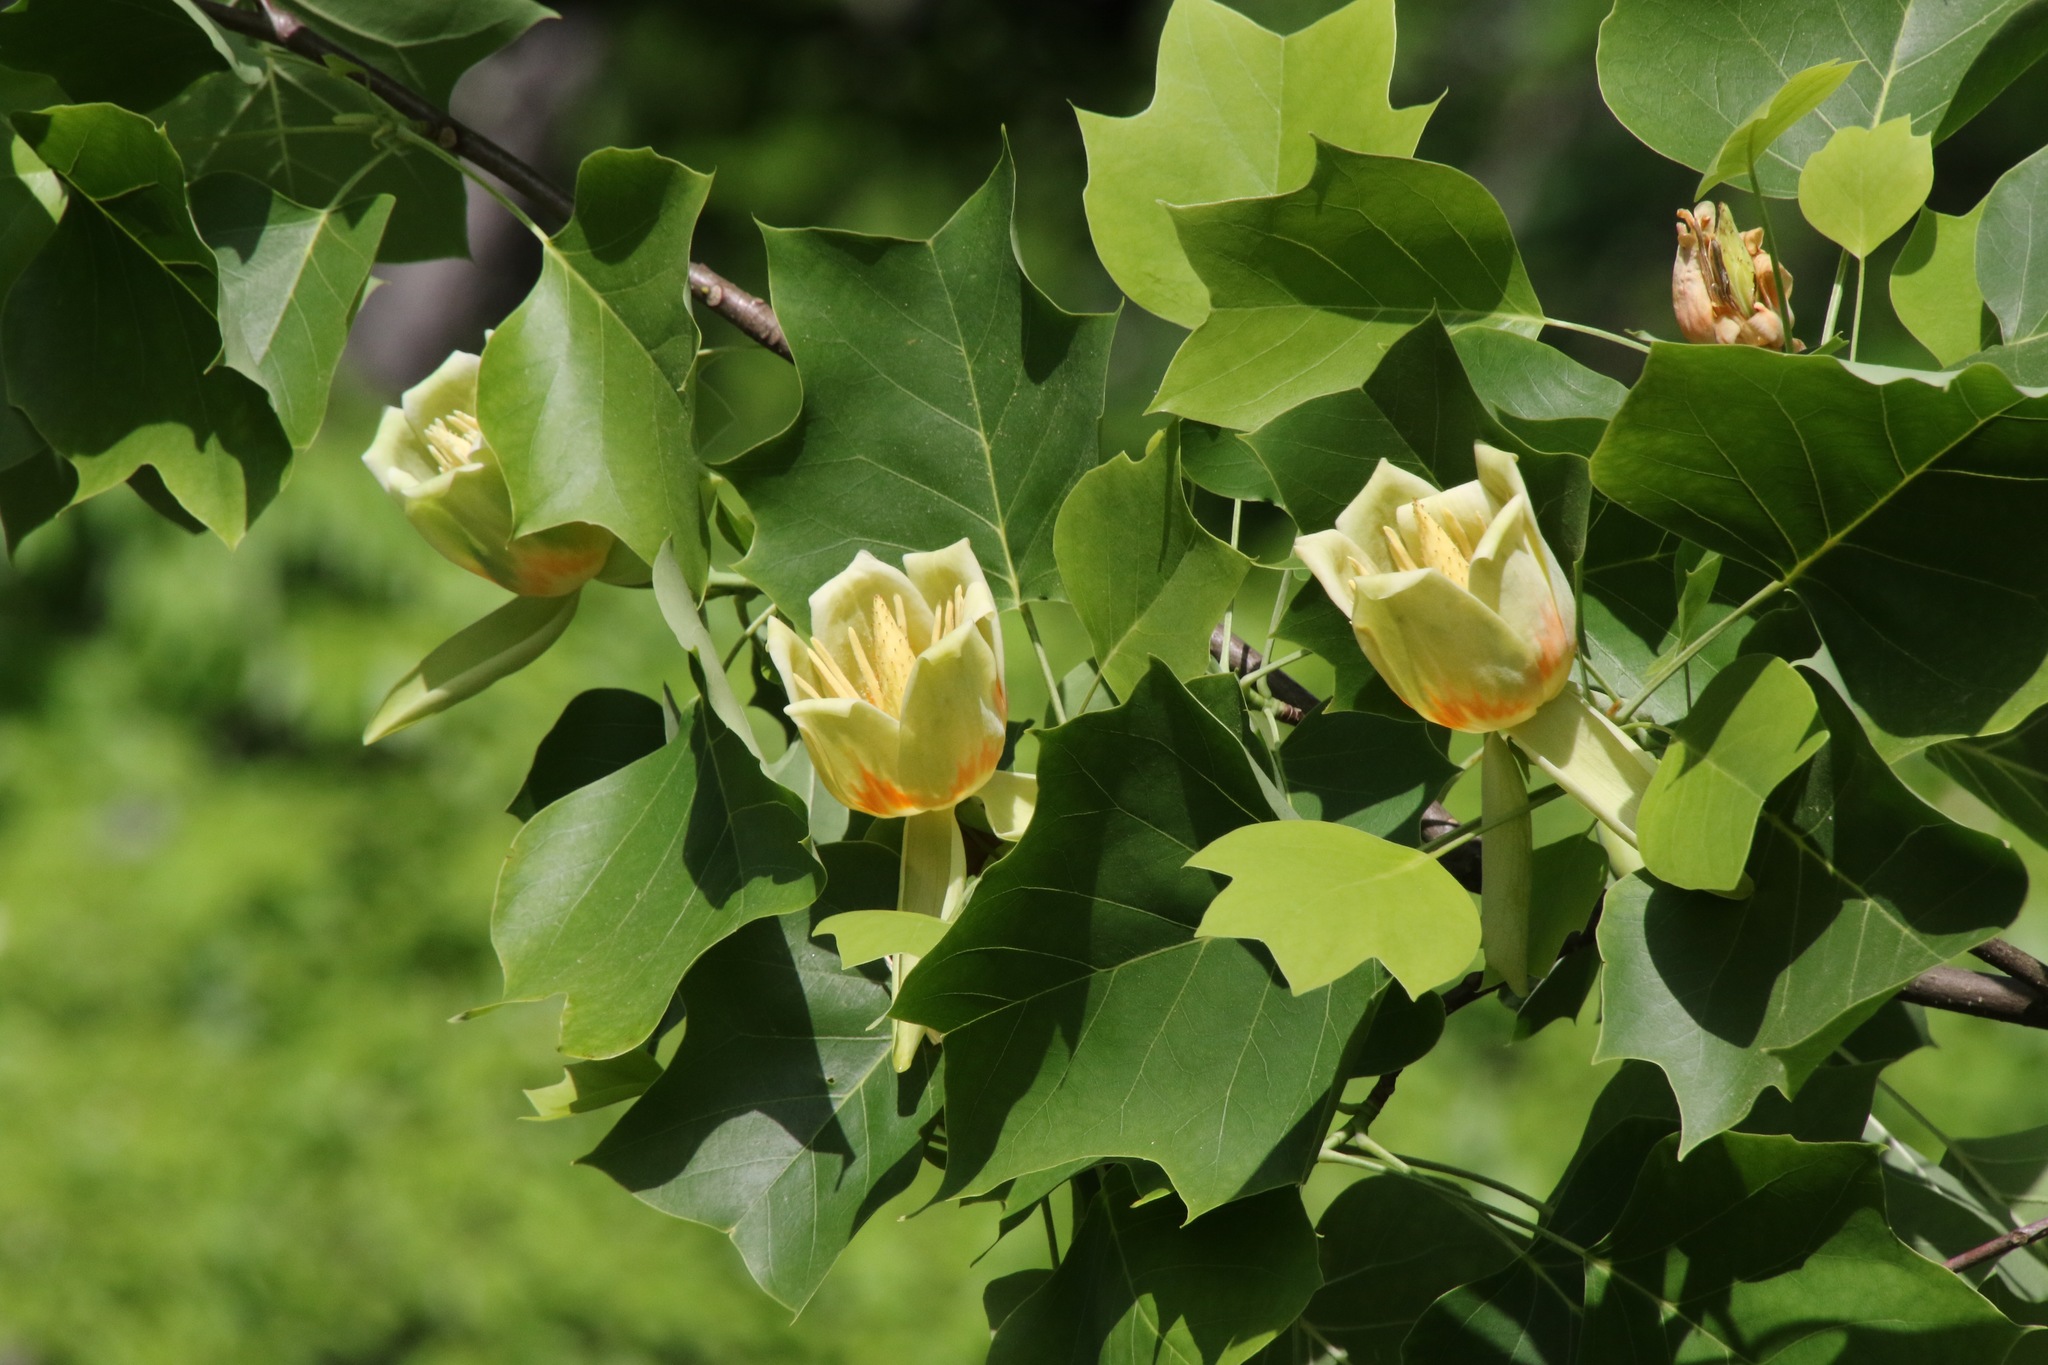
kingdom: Plantae
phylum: Tracheophyta
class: Magnoliopsida
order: Magnoliales
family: Magnoliaceae
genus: Liriodendron
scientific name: Liriodendron tulipifera
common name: Tulip tree
